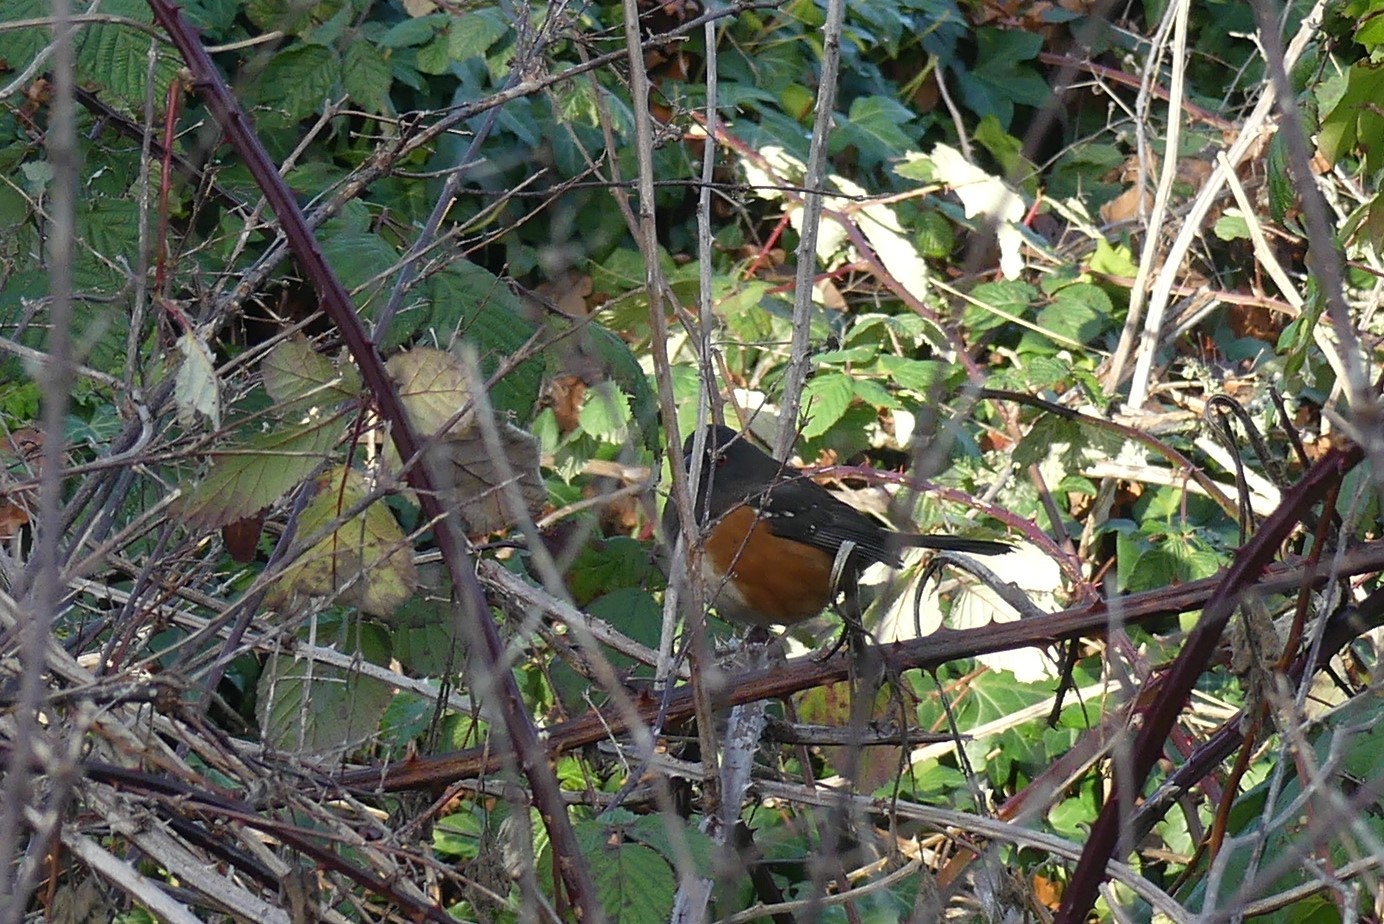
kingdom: Animalia
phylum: Chordata
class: Aves
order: Passeriformes
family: Passerellidae
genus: Pipilo
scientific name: Pipilo maculatus
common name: Spotted towhee
